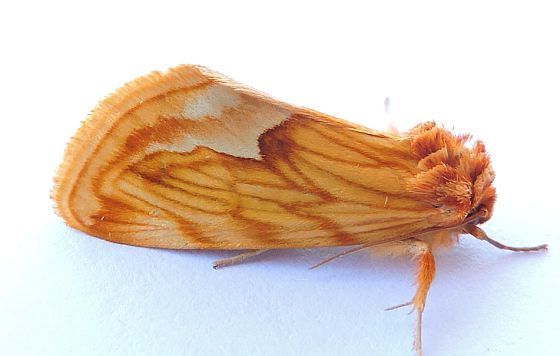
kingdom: Animalia
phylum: Arthropoda
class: Insecta
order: Lepidoptera
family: Noctuidae
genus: Cirrhophanus
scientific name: Cirrhophanus dyari
